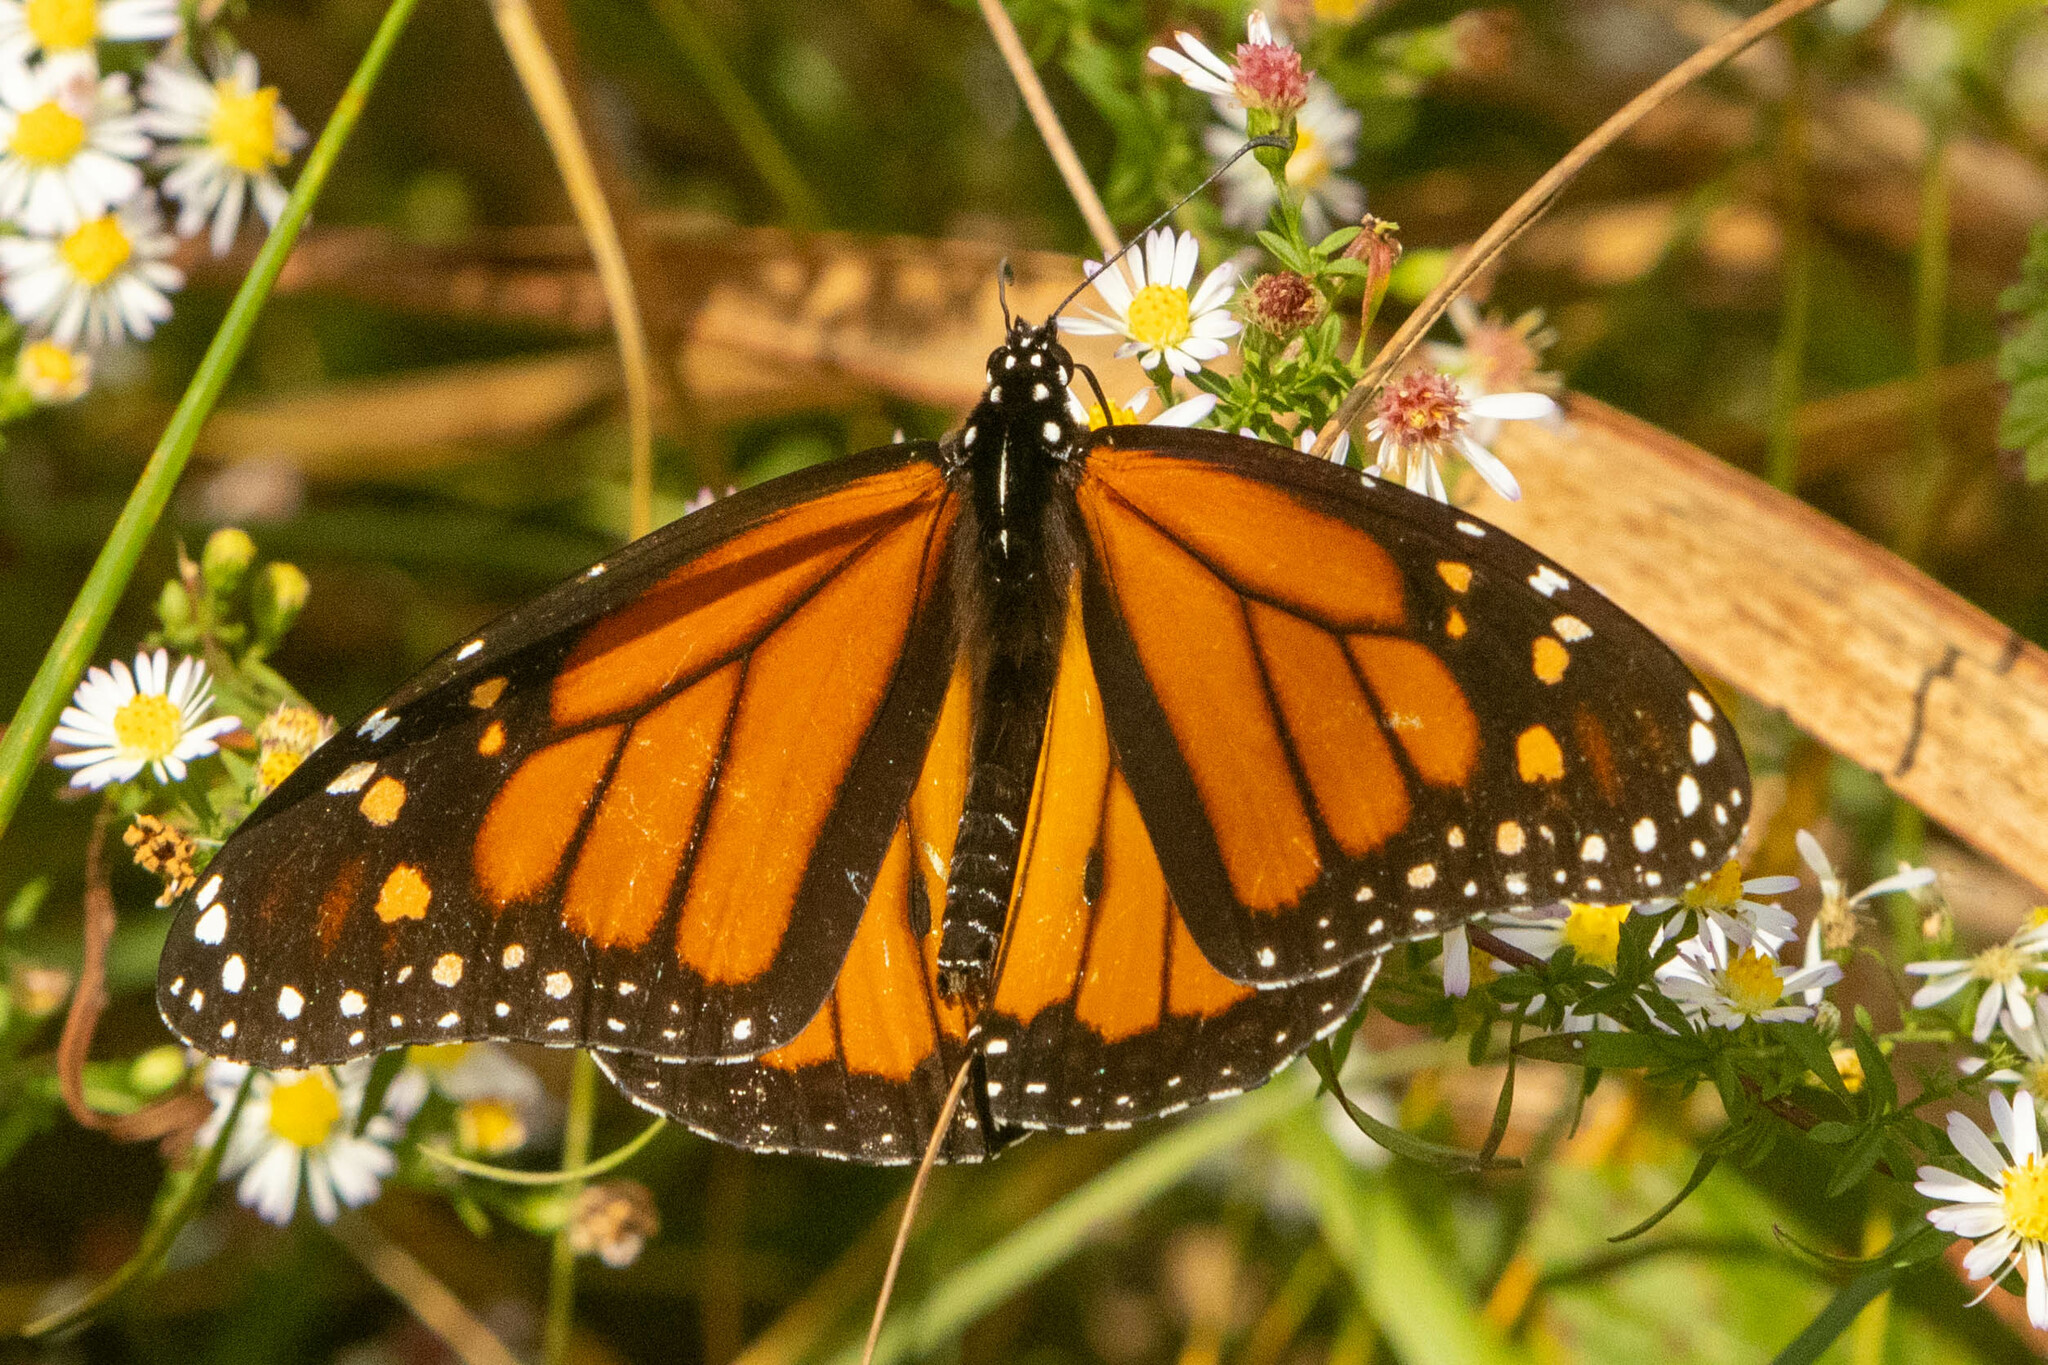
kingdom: Animalia
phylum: Arthropoda
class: Insecta
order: Lepidoptera
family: Nymphalidae
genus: Danaus
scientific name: Danaus plexippus
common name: Monarch
